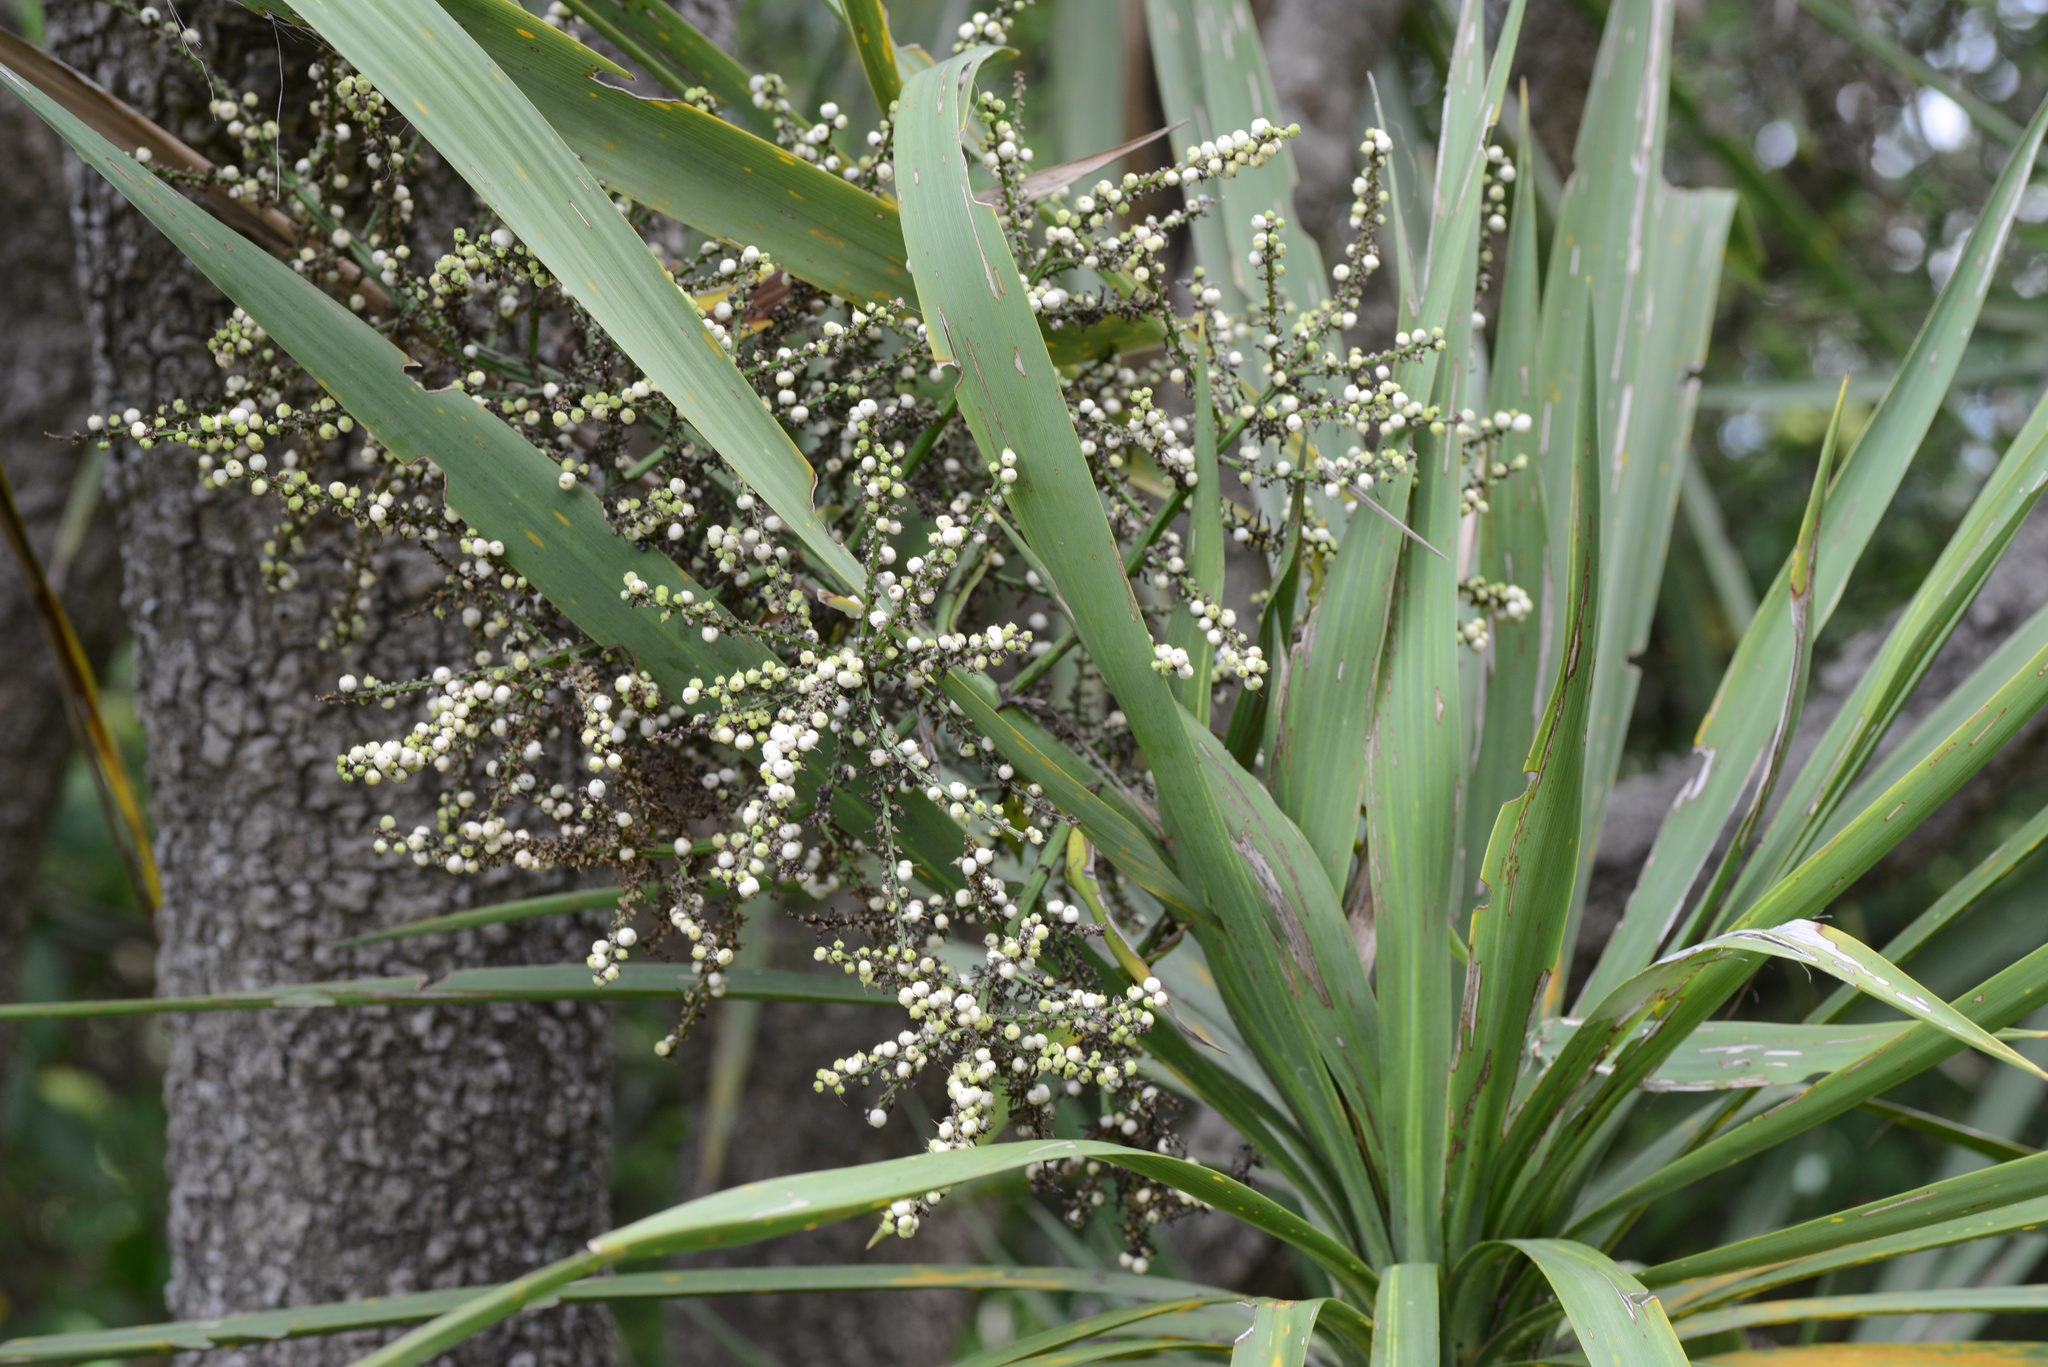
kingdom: Plantae
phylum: Tracheophyta
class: Liliopsida
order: Asparagales
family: Asparagaceae
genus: Cordyline
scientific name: Cordyline australis
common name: Cabbage-palm
